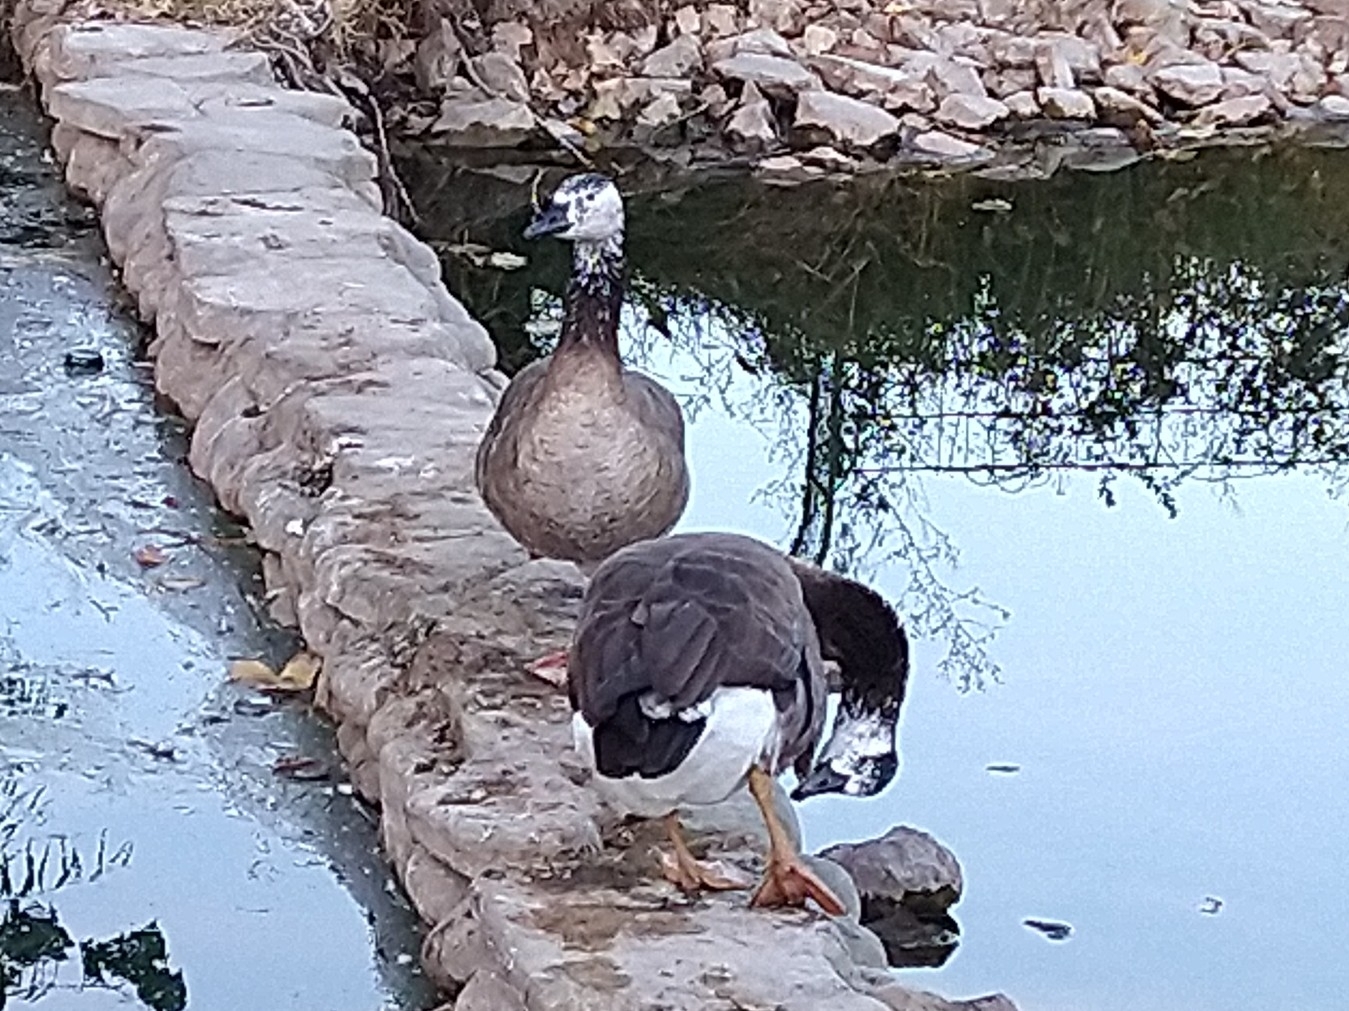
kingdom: Animalia
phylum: Chordata
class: Aves
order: Anseriformes
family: Anatidae
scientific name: Anatidae
